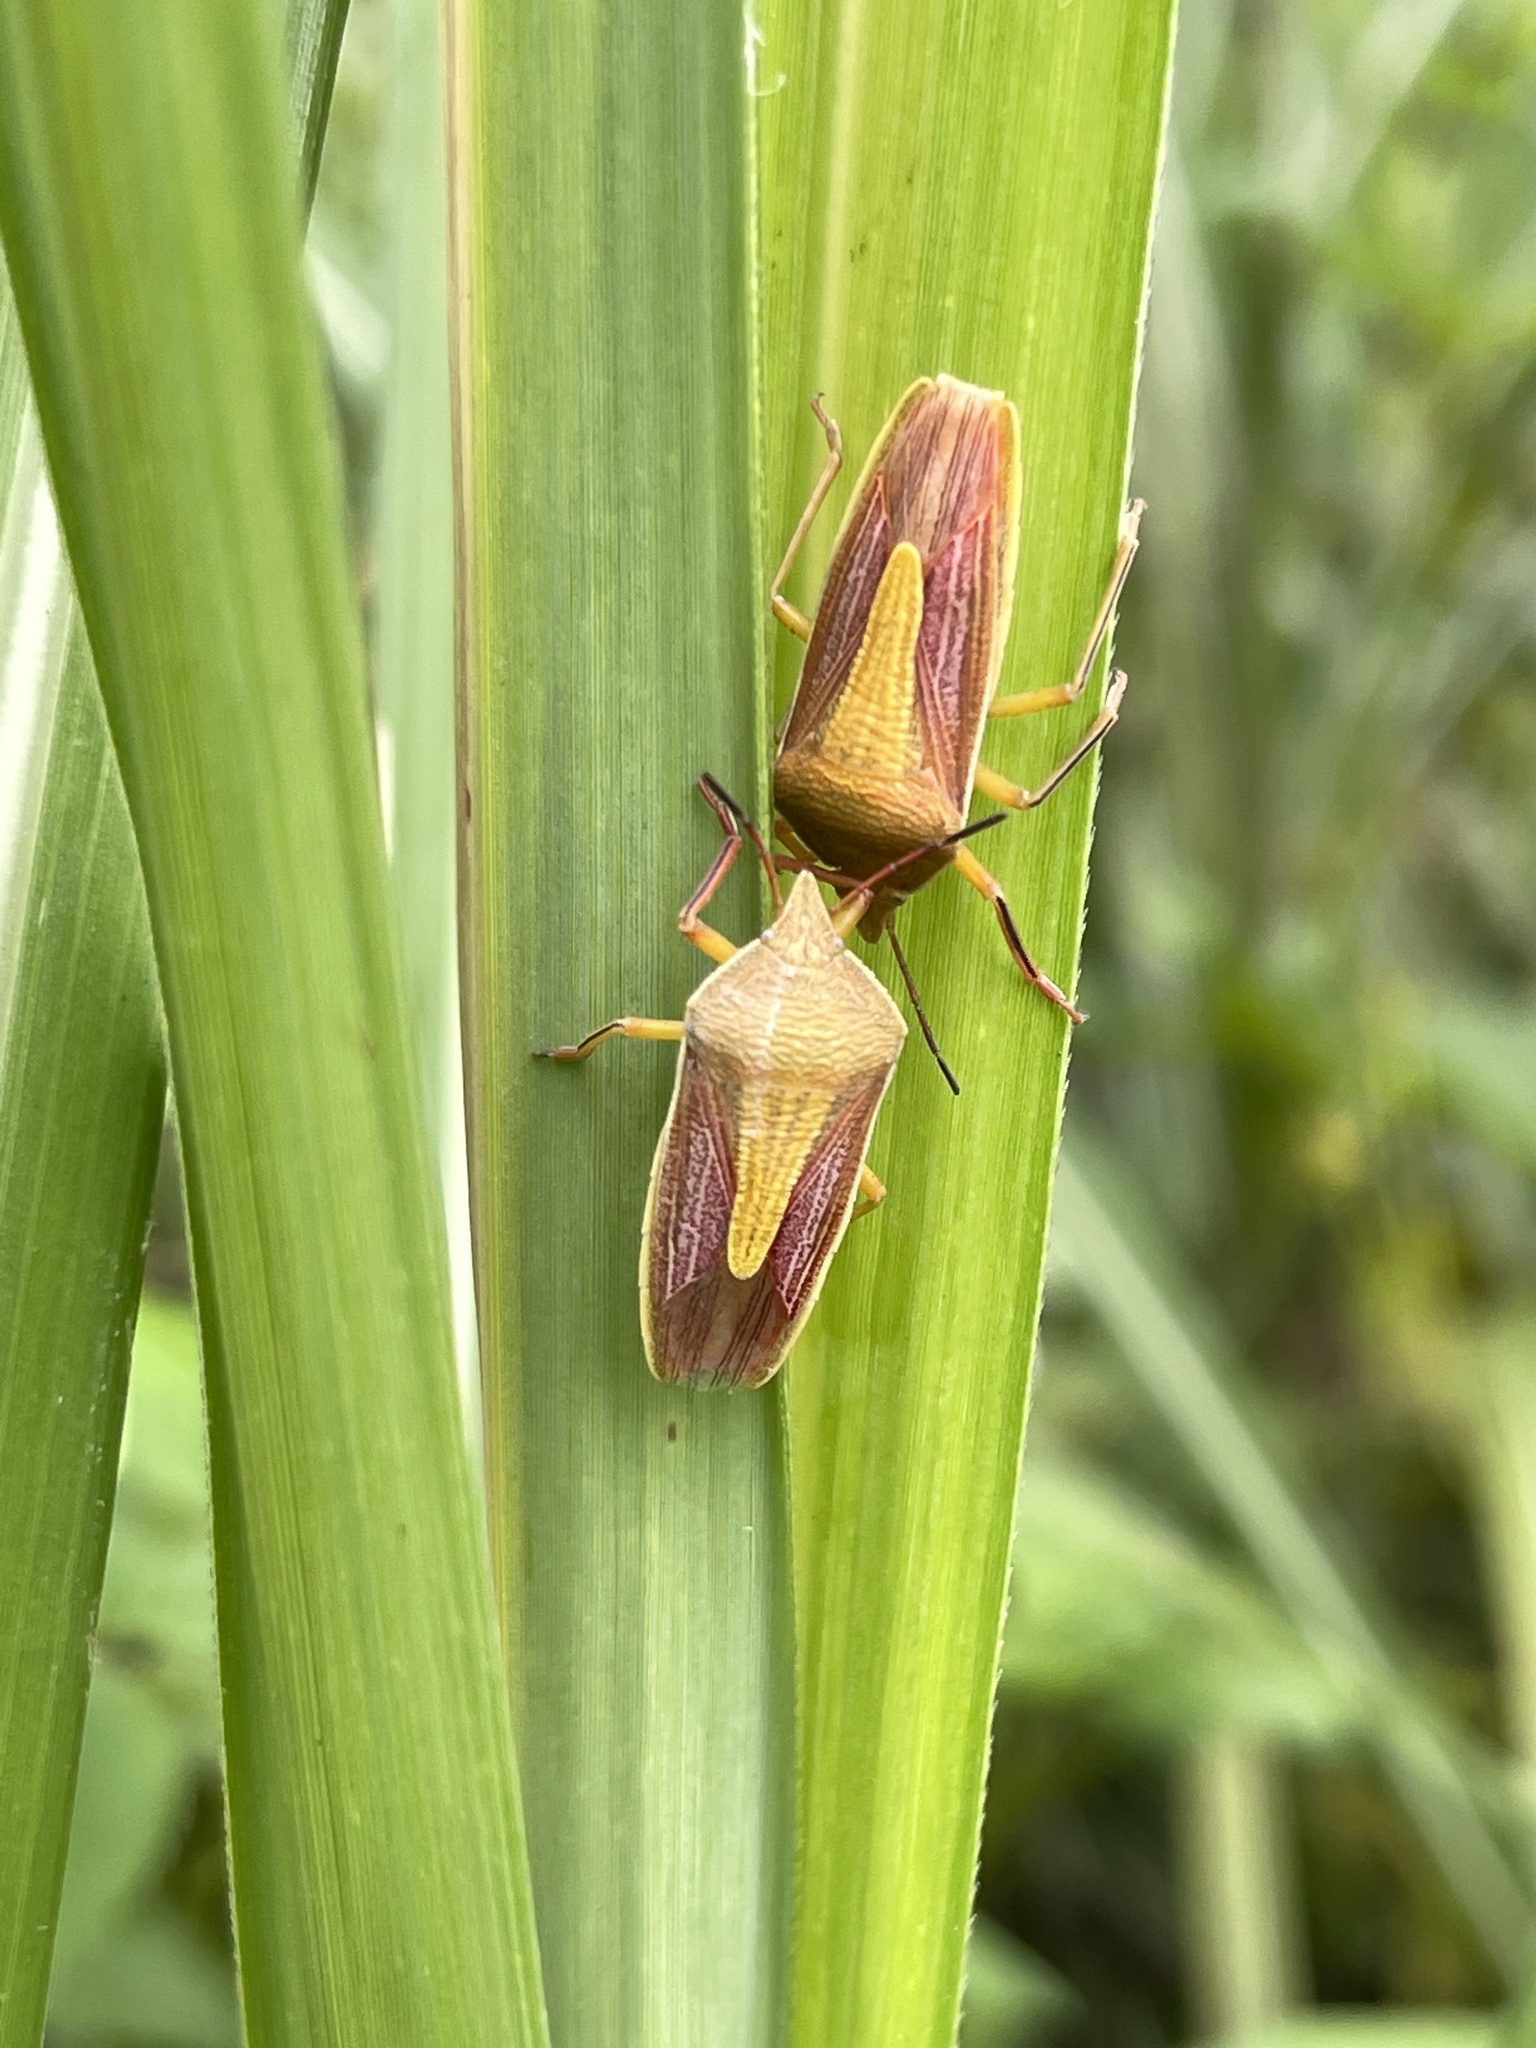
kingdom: Animalia
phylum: Arthropoda
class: Insecta
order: Hemiptera
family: Pentatomidae
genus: Megarrhamphus
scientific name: Megarrhamphus truncatus
